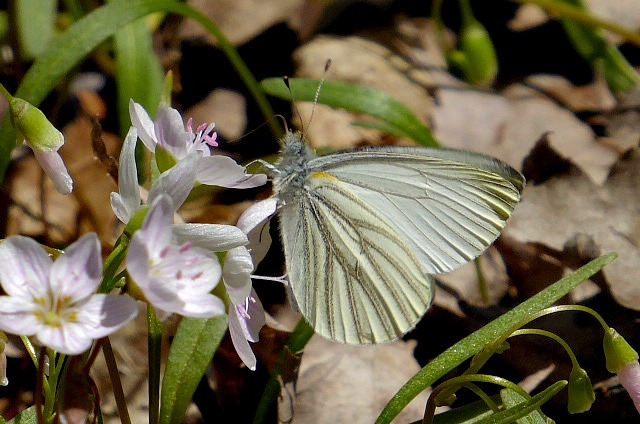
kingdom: Animalia
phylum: Arthropoda
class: Insecta
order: Lepidoptera
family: Pieridae
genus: Pieris
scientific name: Pieris virginiensis
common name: West virginia white
